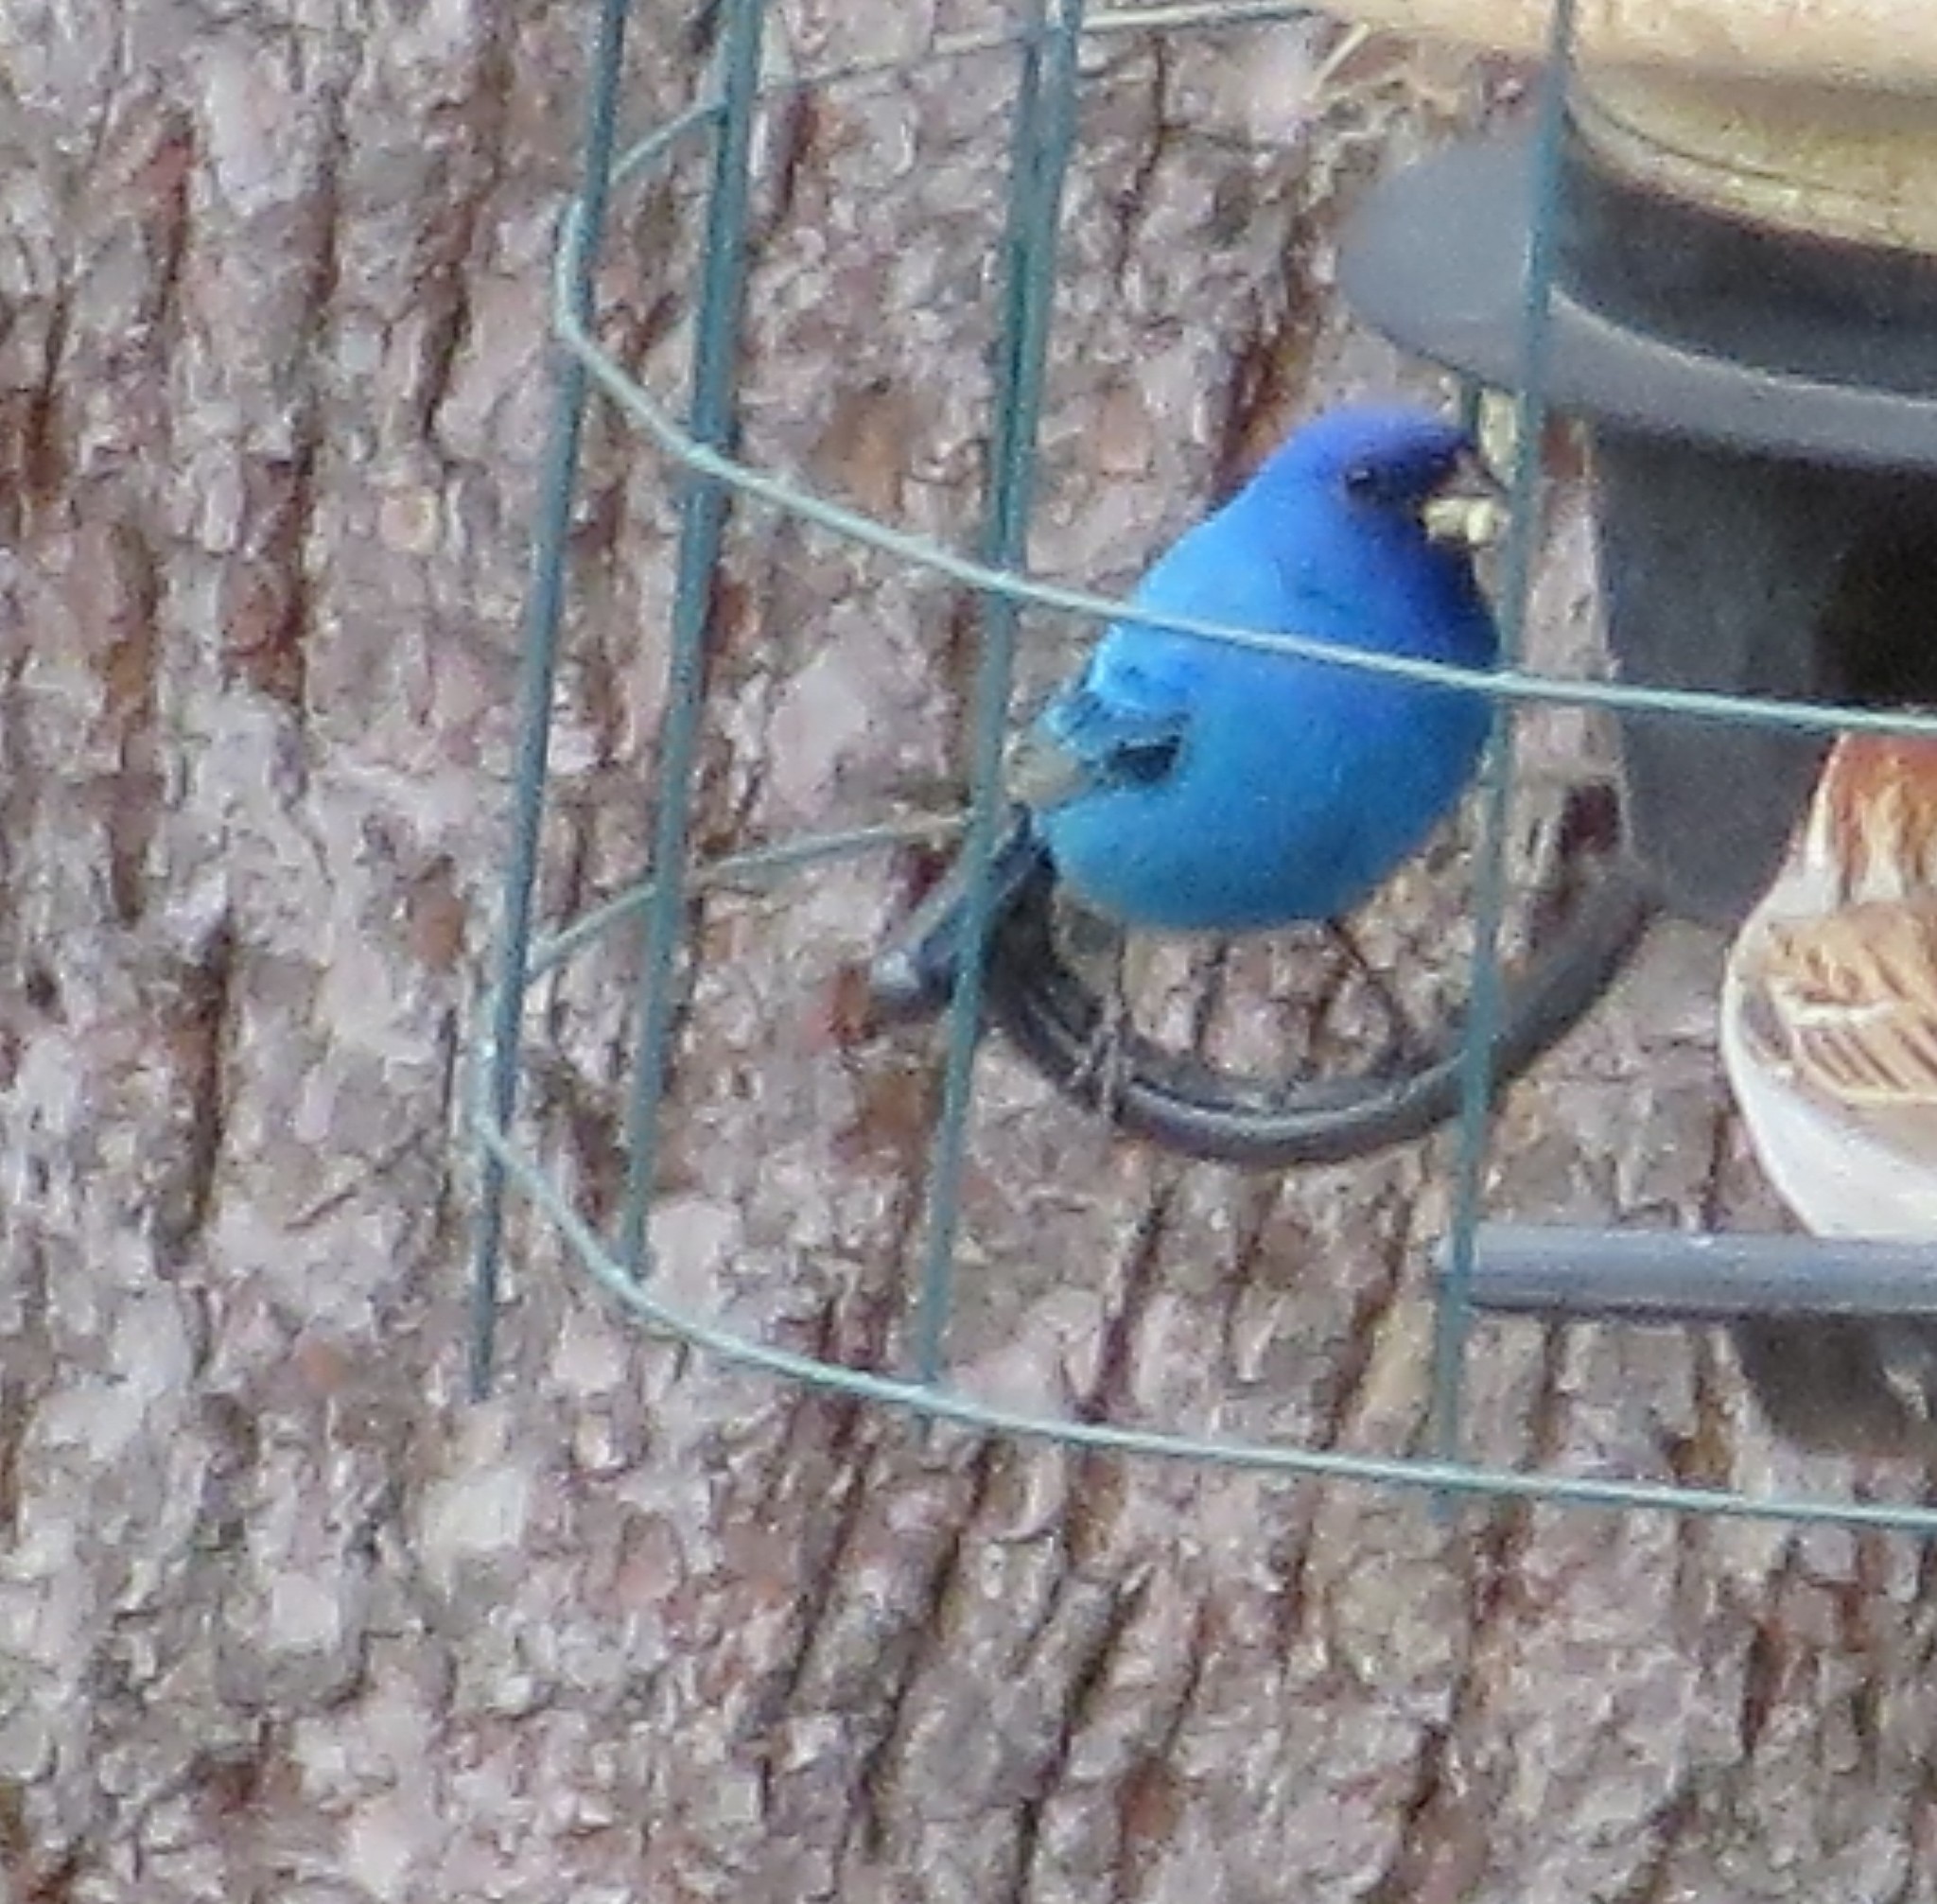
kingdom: Animalia
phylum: Chordata
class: Aves
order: Passeriformes
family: Cardinalidae
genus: Passerina
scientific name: Passerina cyanea
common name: Indigo bunting
